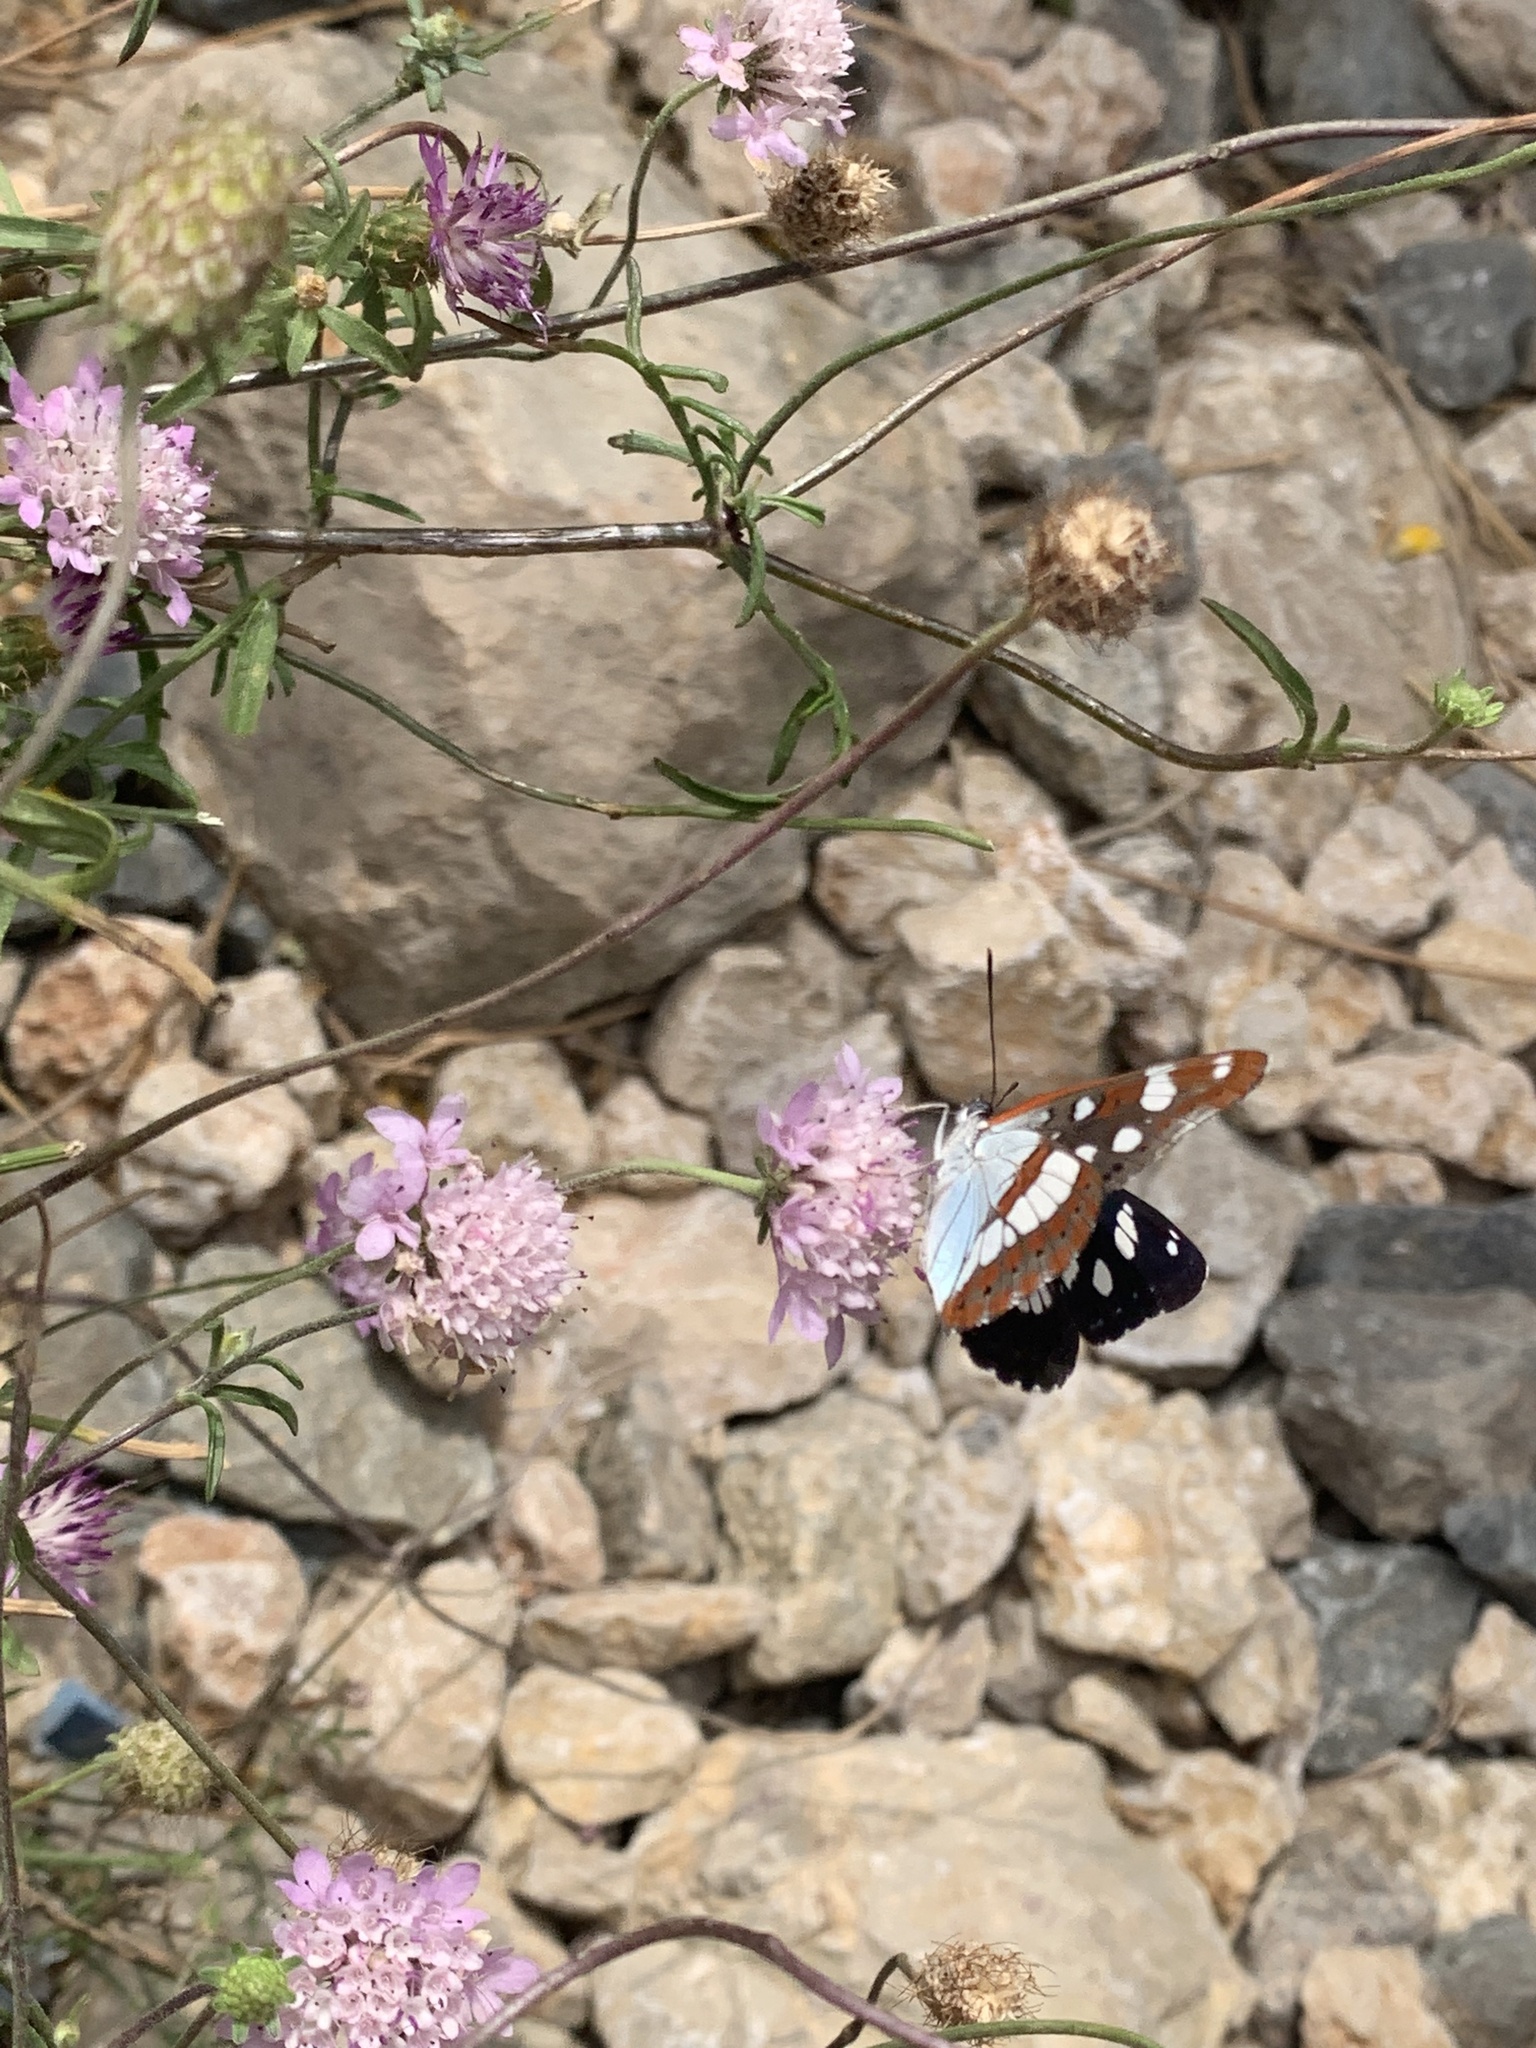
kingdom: Animalia
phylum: Arthropoda
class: Insecta
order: Lepidoptera
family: Nymphalidae
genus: Limenitis
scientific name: Limenitis reducta
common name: Southern white admiral
